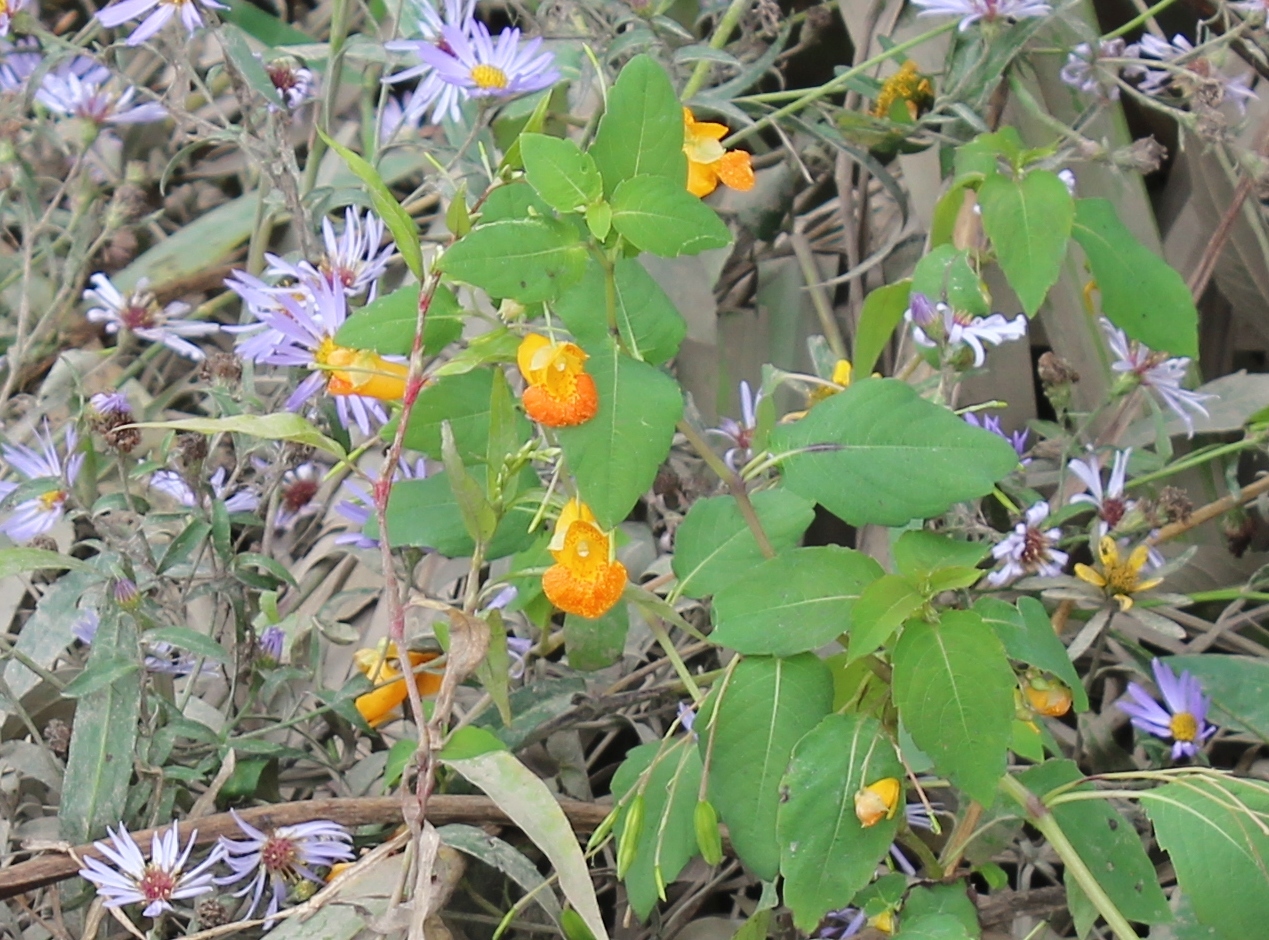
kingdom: Plantae
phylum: Tracheophyta
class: Magnoliopsida
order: Ericales
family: Balsaminaceae
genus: Impatiens
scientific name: Impatiens capensis
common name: Orange balsam
